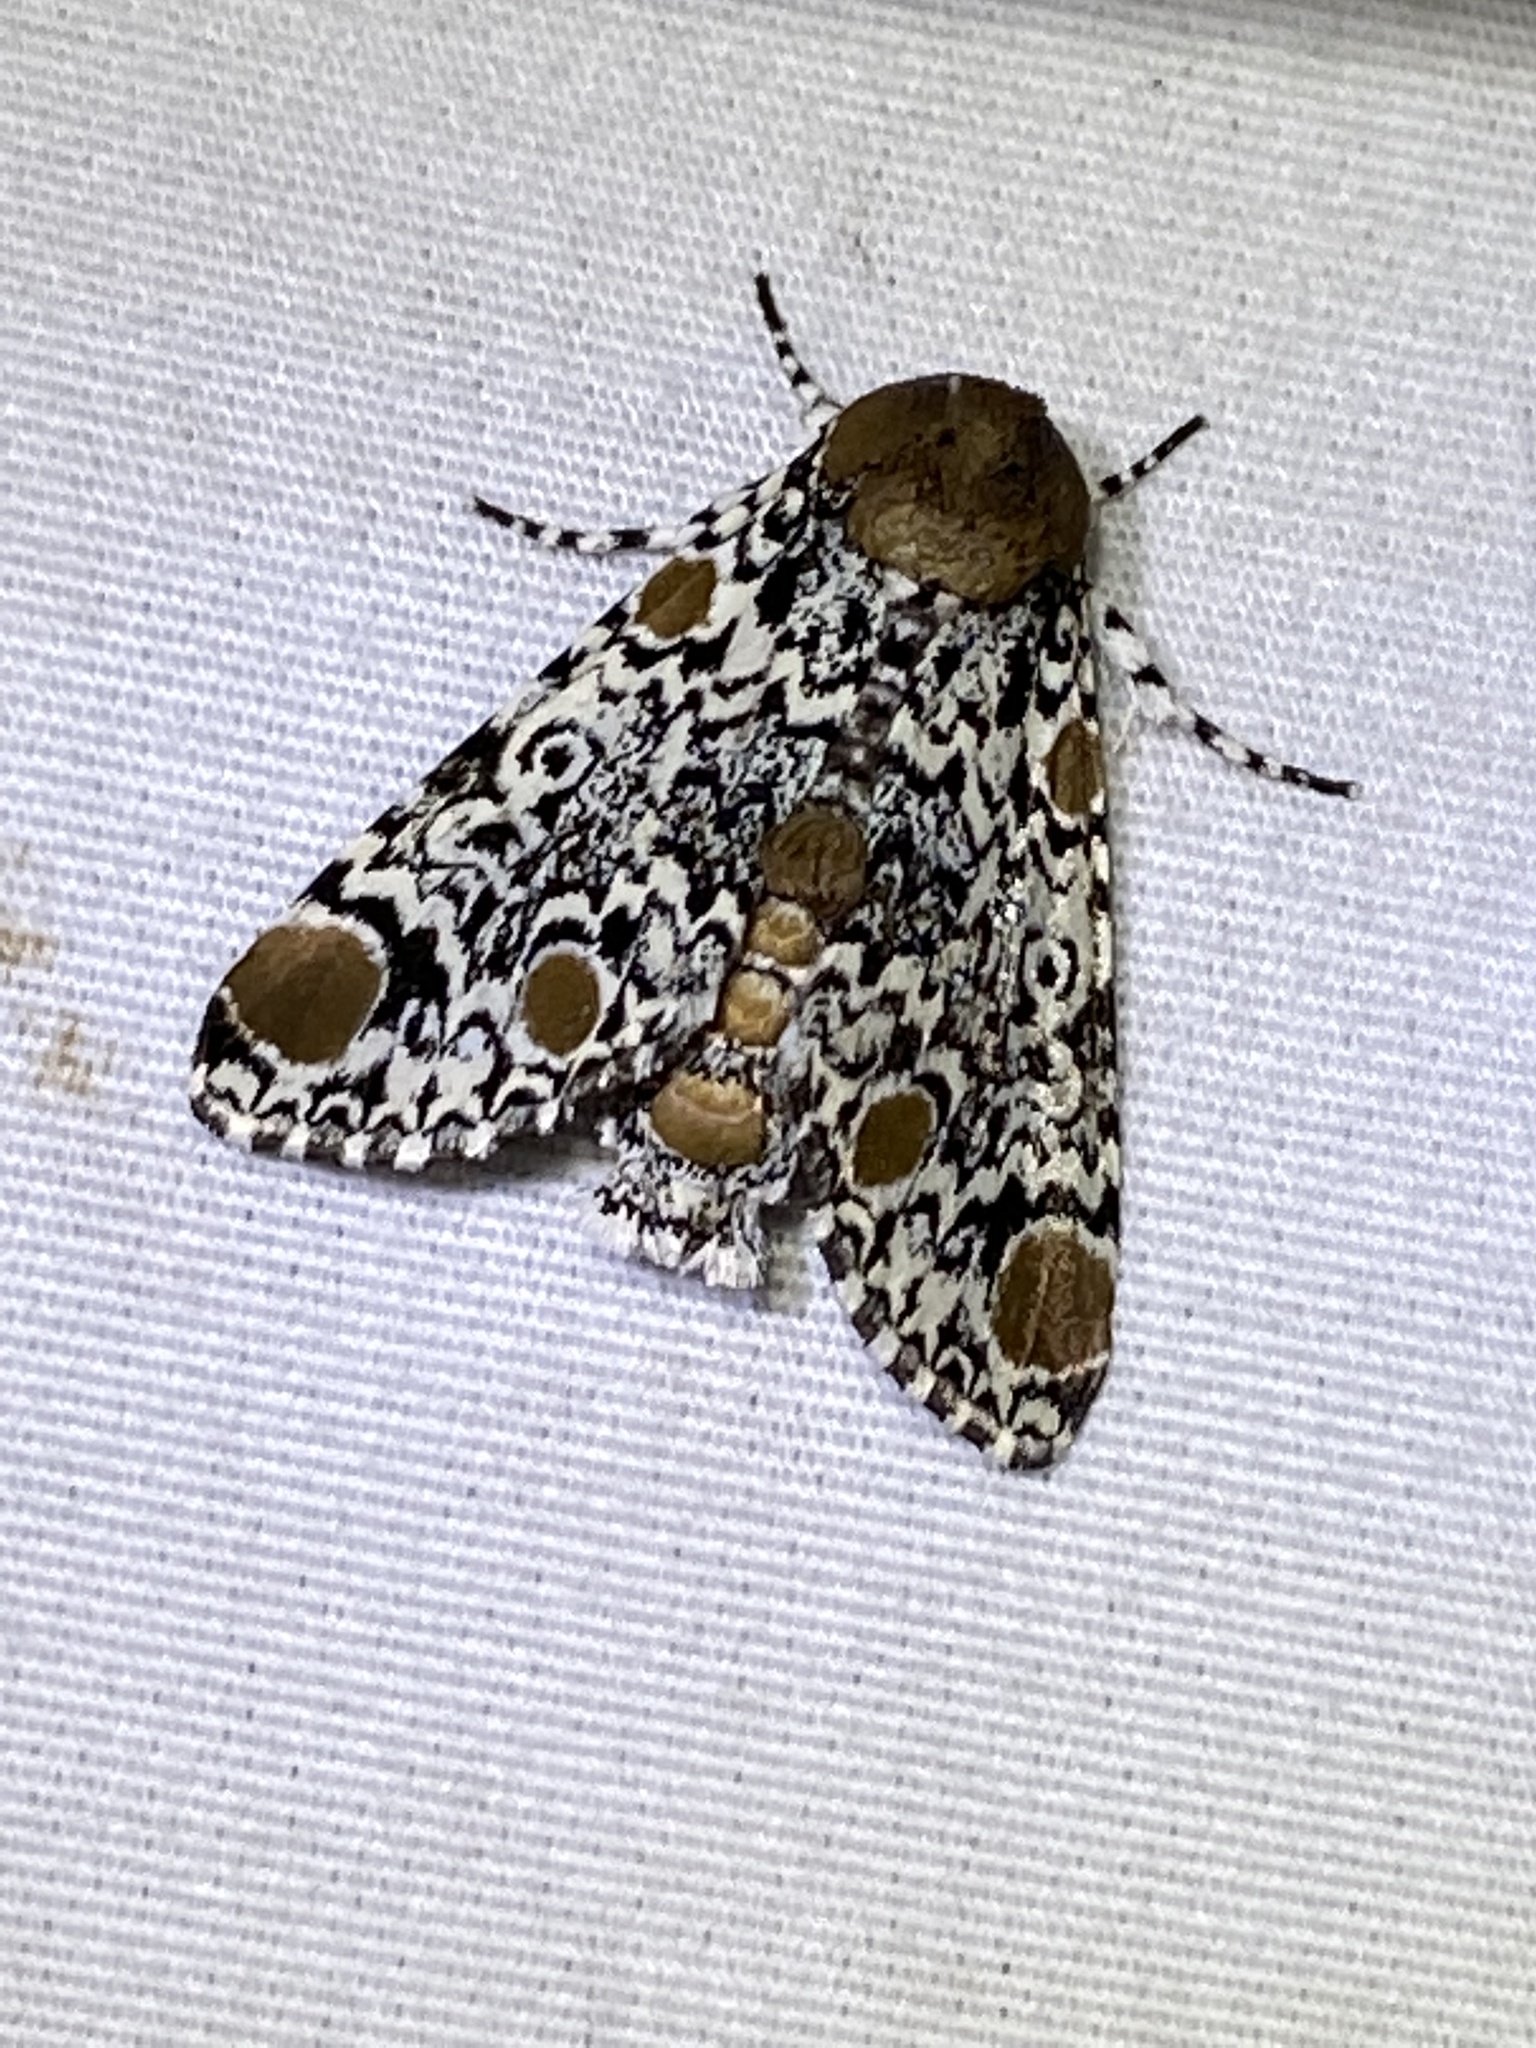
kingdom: Animalia
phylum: Arthropoda
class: Insecta
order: Lepidoptera
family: Noctuidae
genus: Harrisimemna
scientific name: Harrisimemna trisignata
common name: Harris threespot
